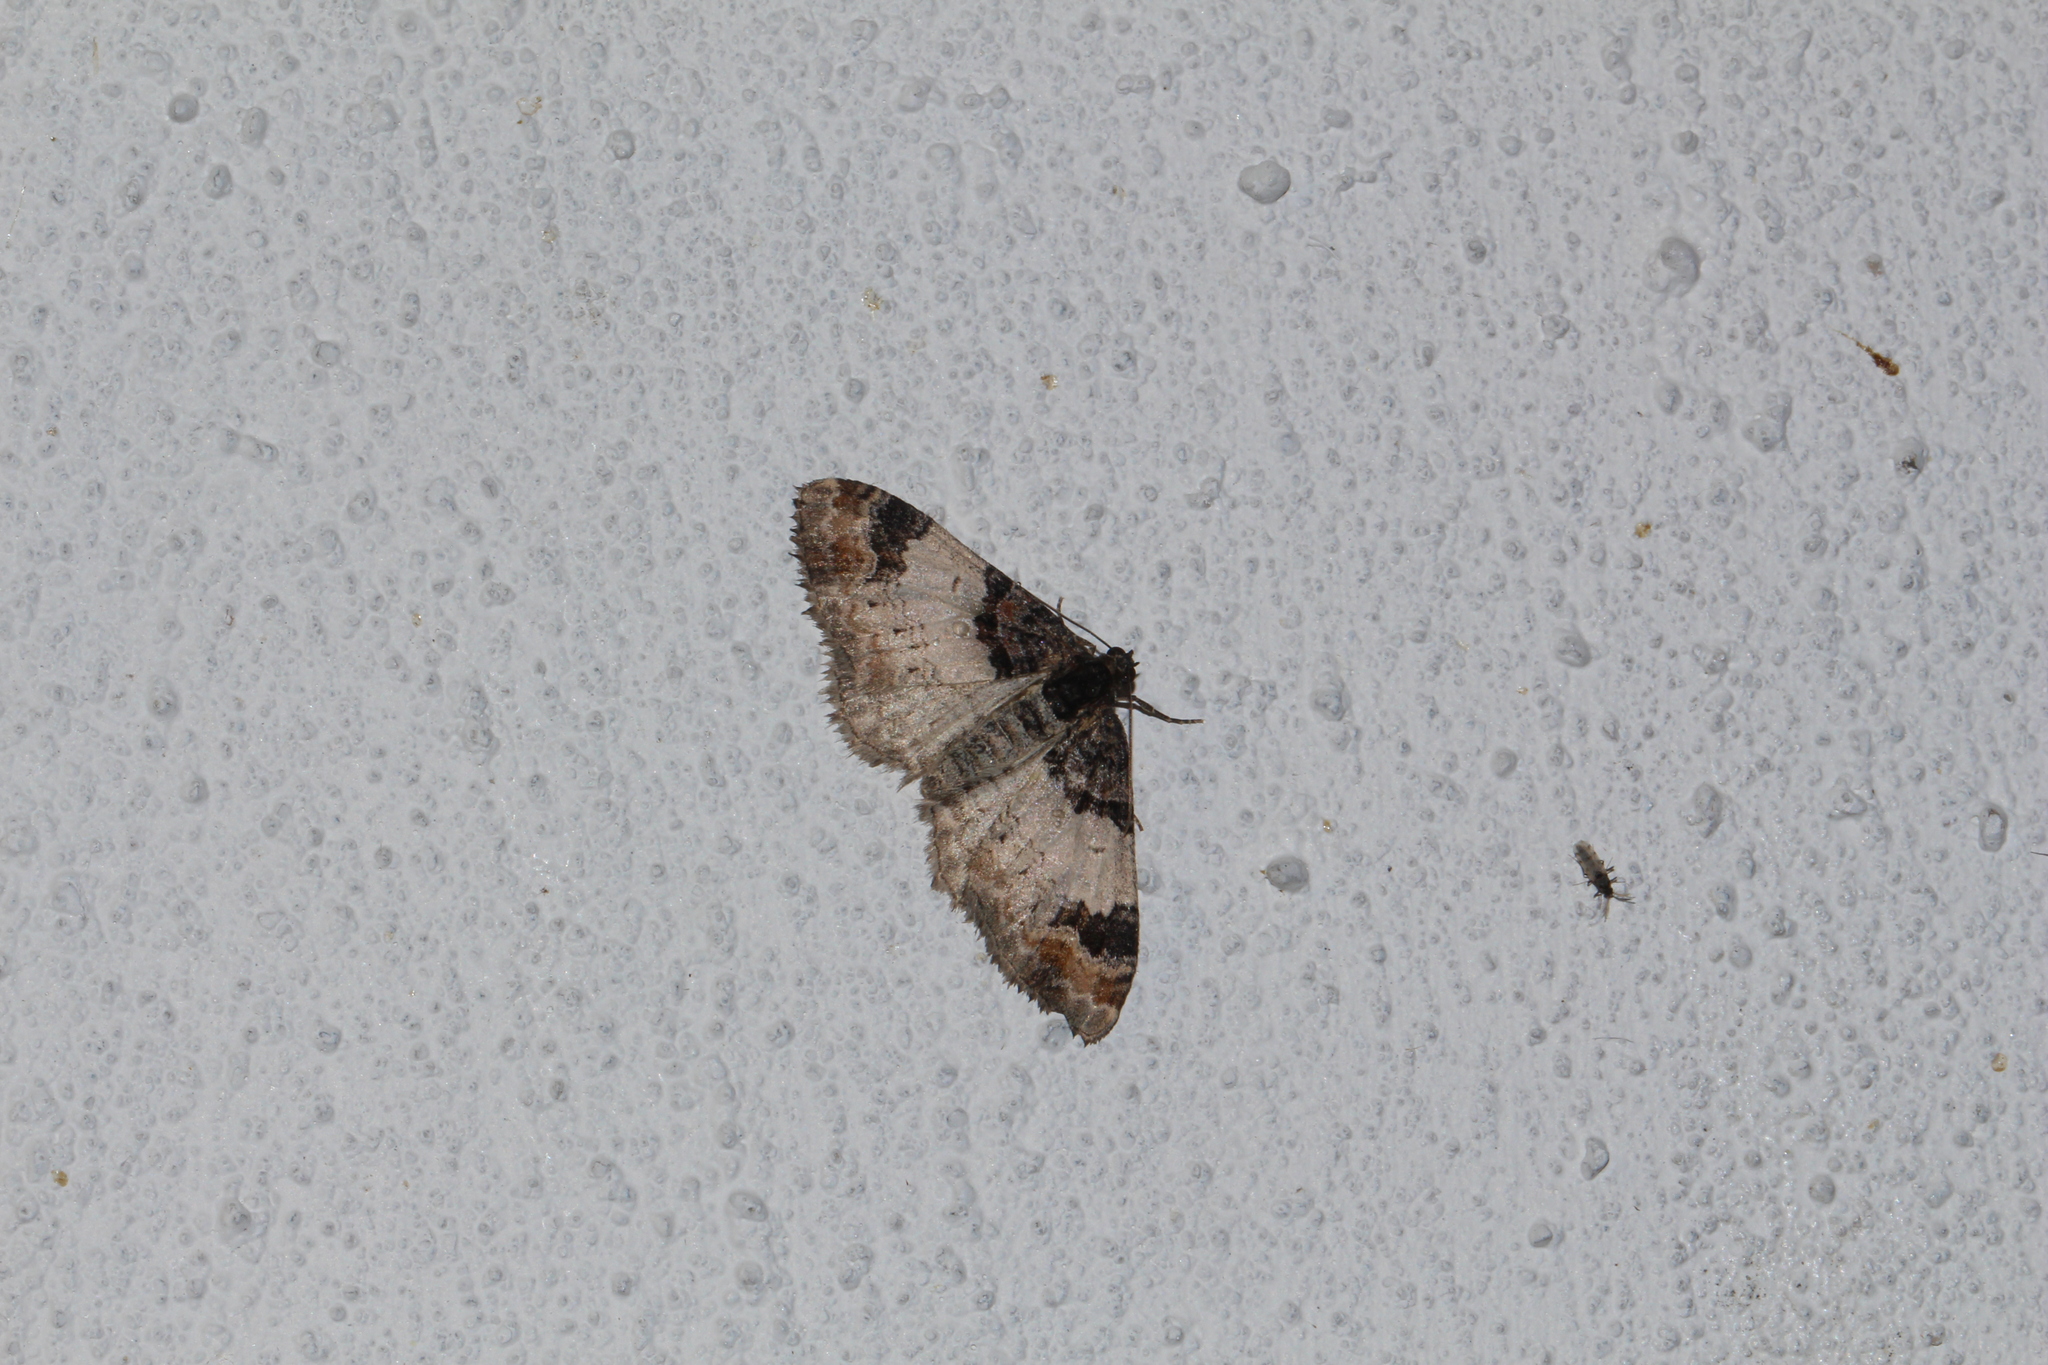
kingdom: Animalia
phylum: Arthropoda
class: Insecta
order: Lepidoptera
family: Geometridae
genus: Catarhoe
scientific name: Catarhoe cuculata
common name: Royal mantle
